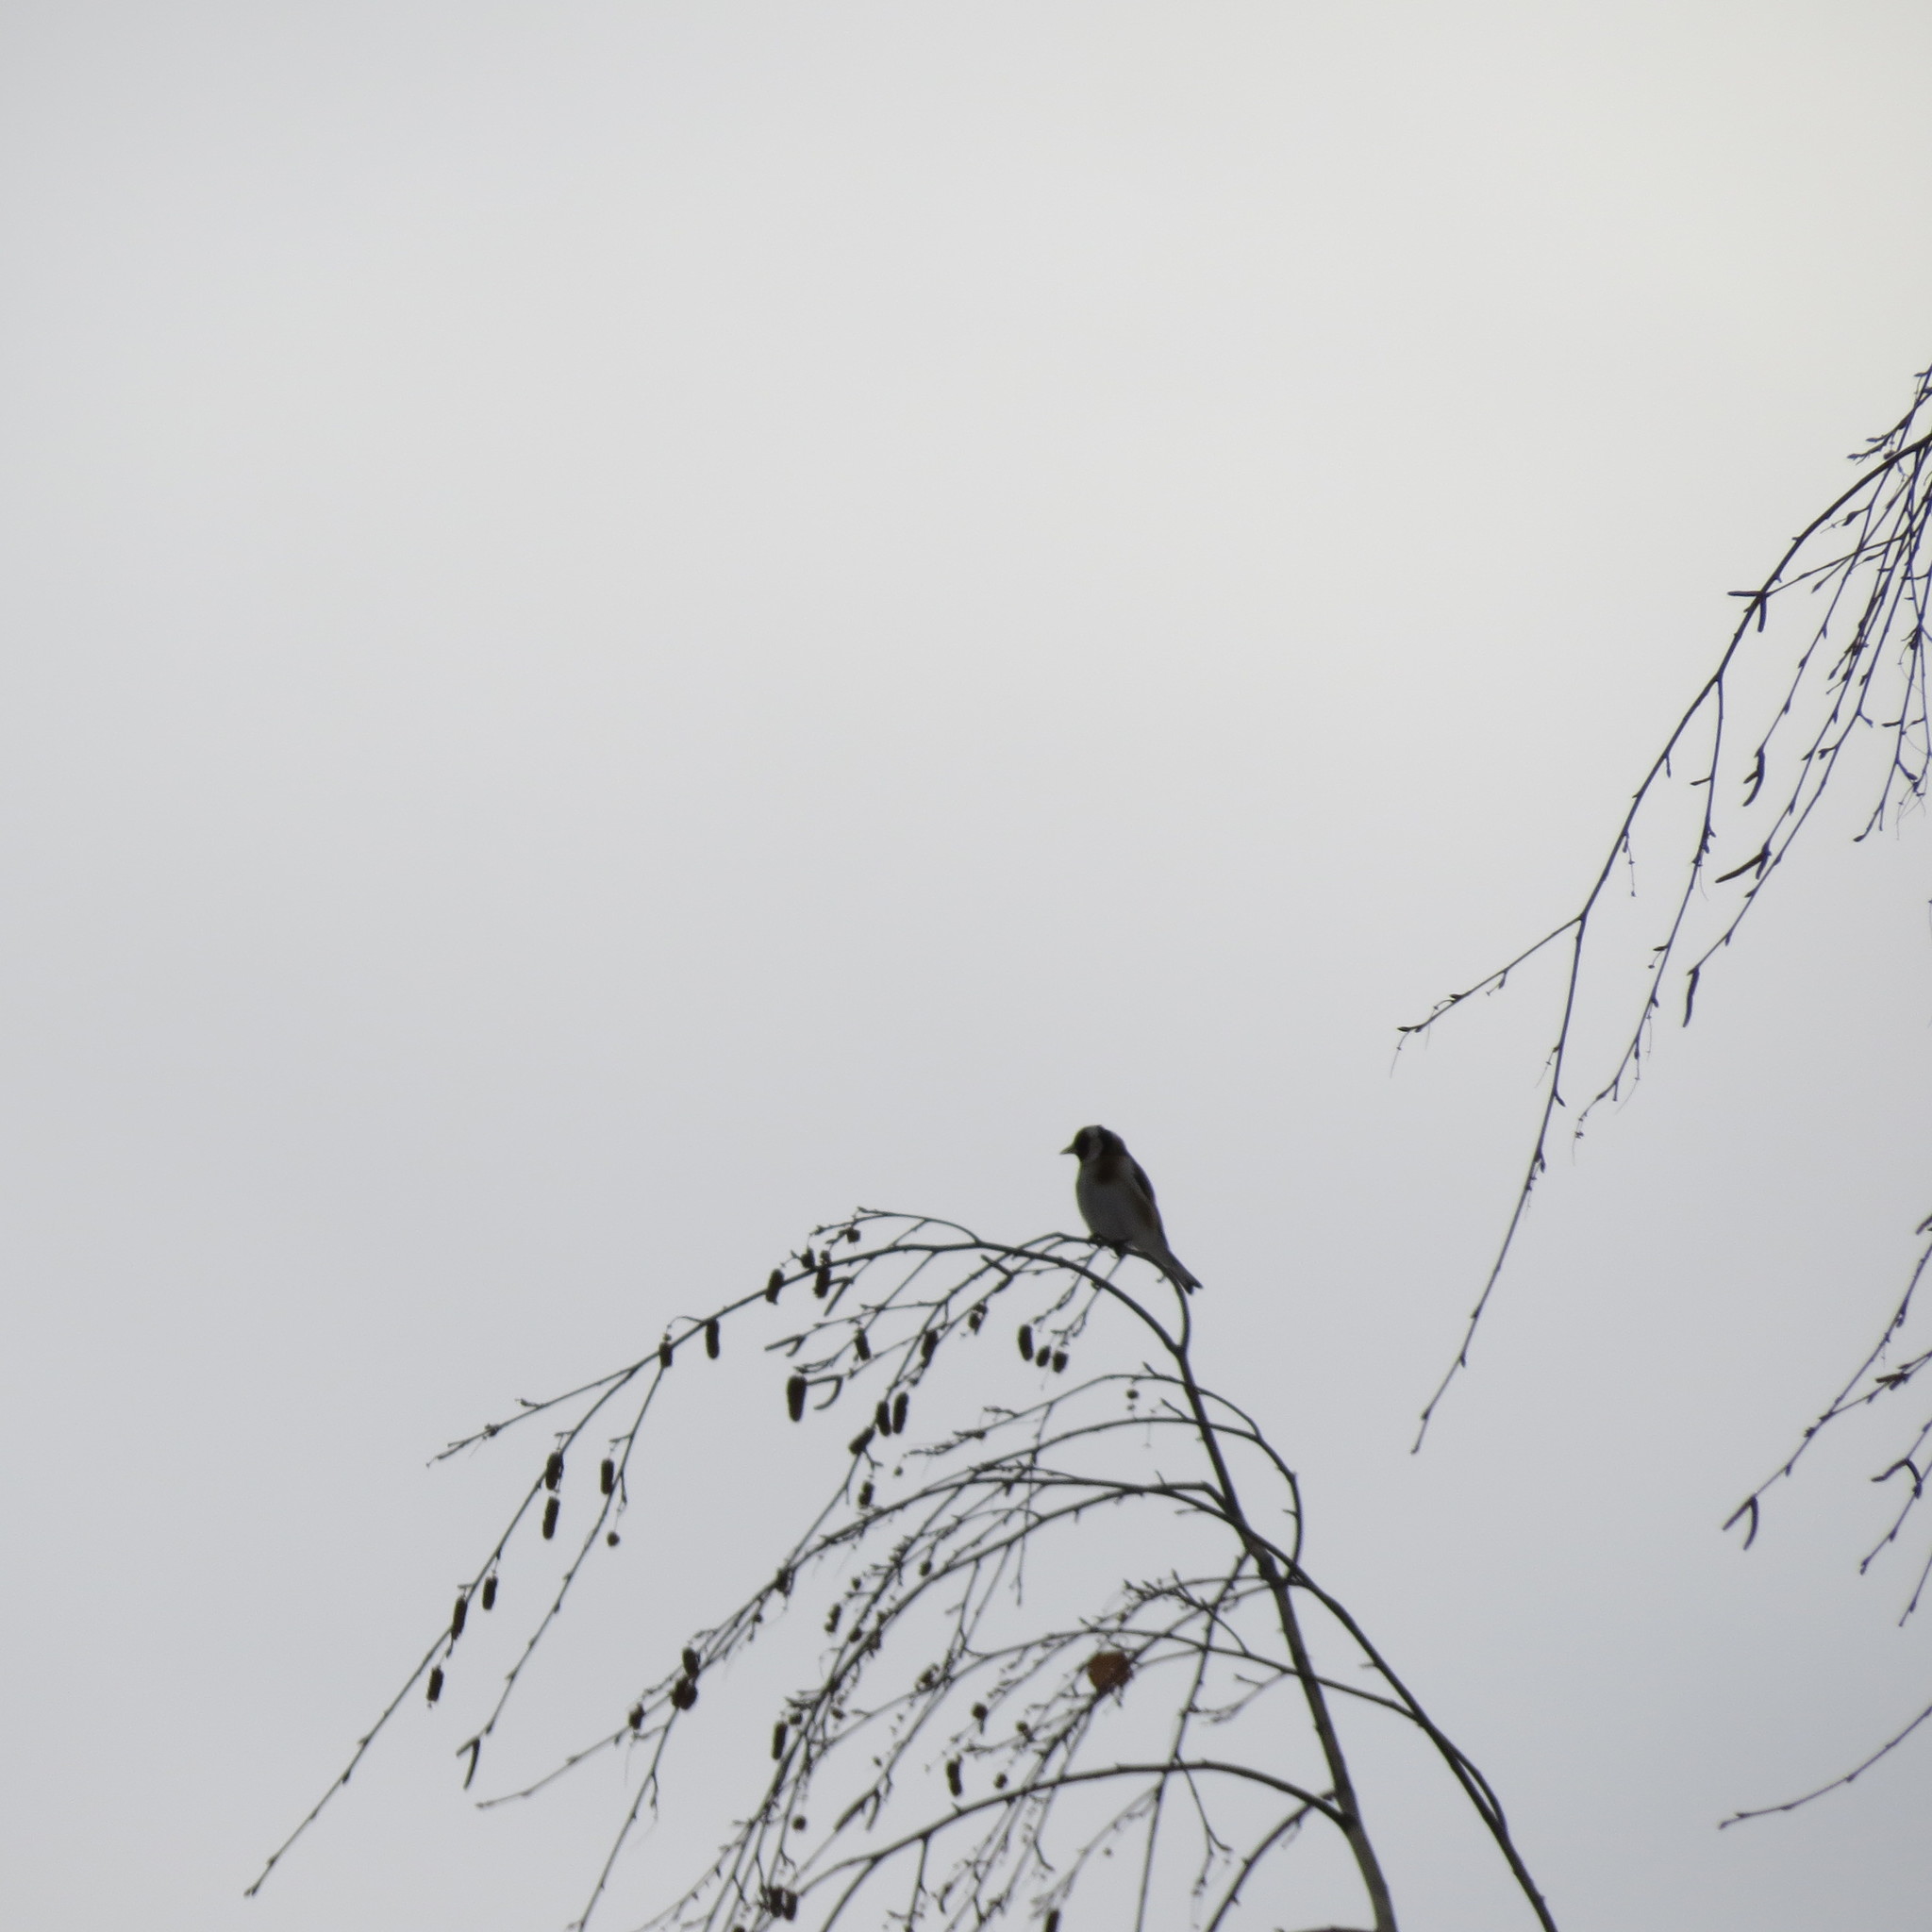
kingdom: Animalia
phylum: Chordata
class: Aves
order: Passeriformes
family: Fringillidae
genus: Carduelis
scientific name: Carduelis carduelis
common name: European goldfinch
